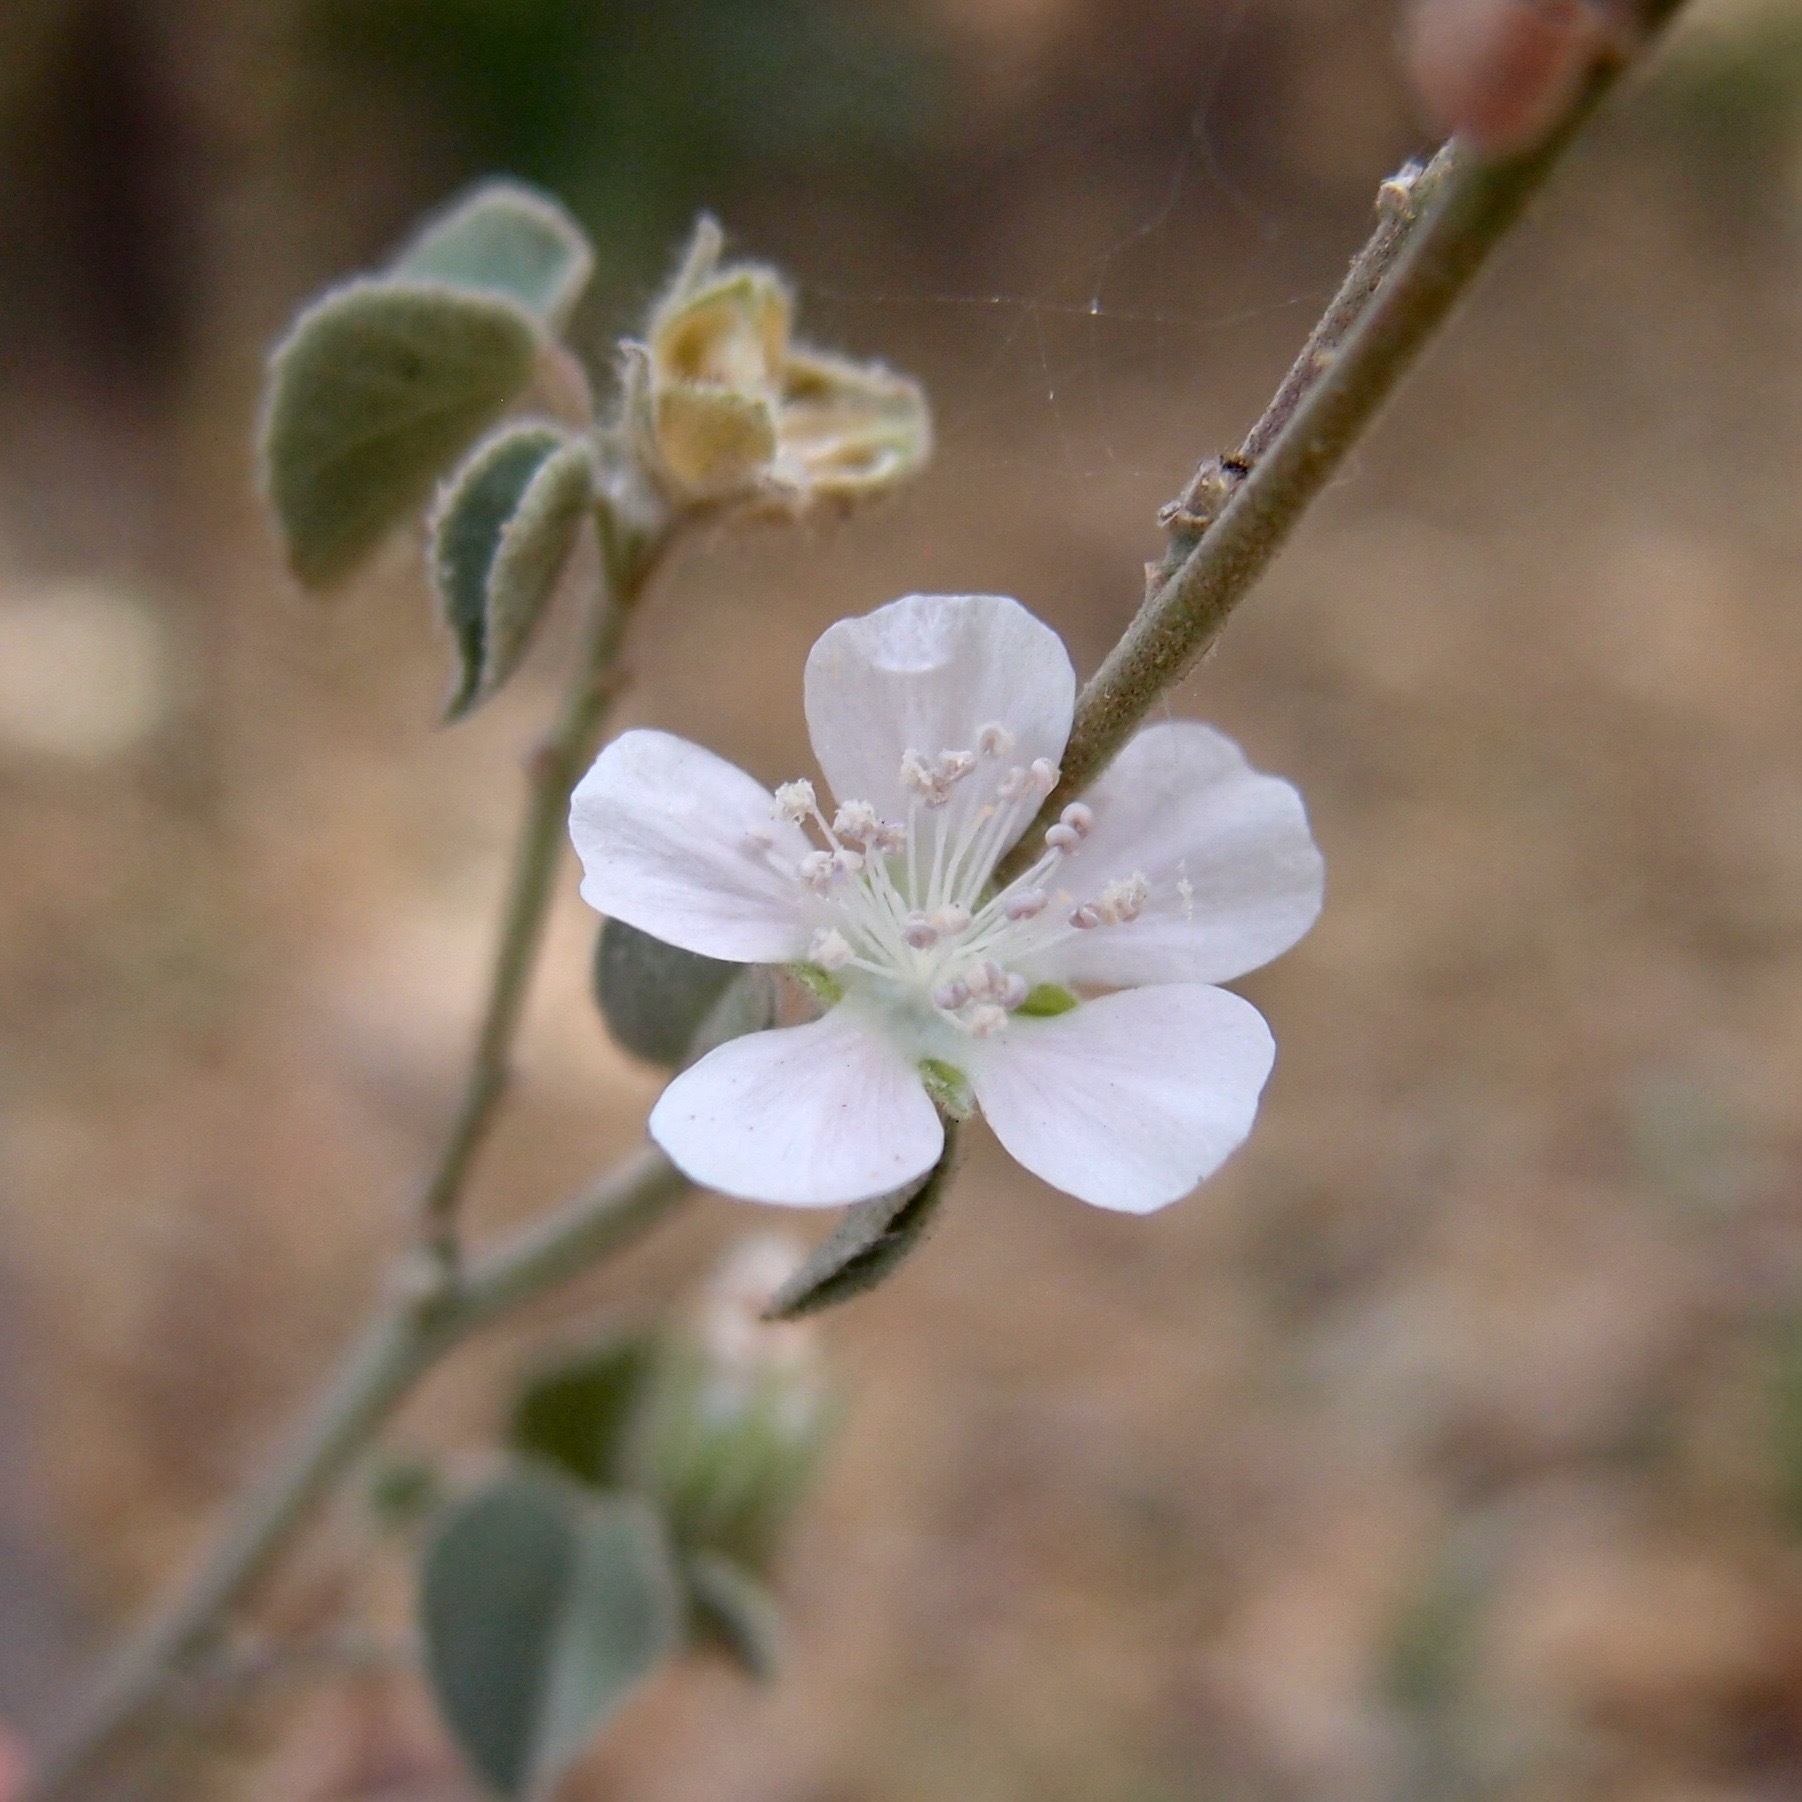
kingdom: Plantae
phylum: Tracheophyta
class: Magnoliopsida
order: Malvales
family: Malvaceae
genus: Bastardiastrum
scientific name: Bastardiastrum cinctum
